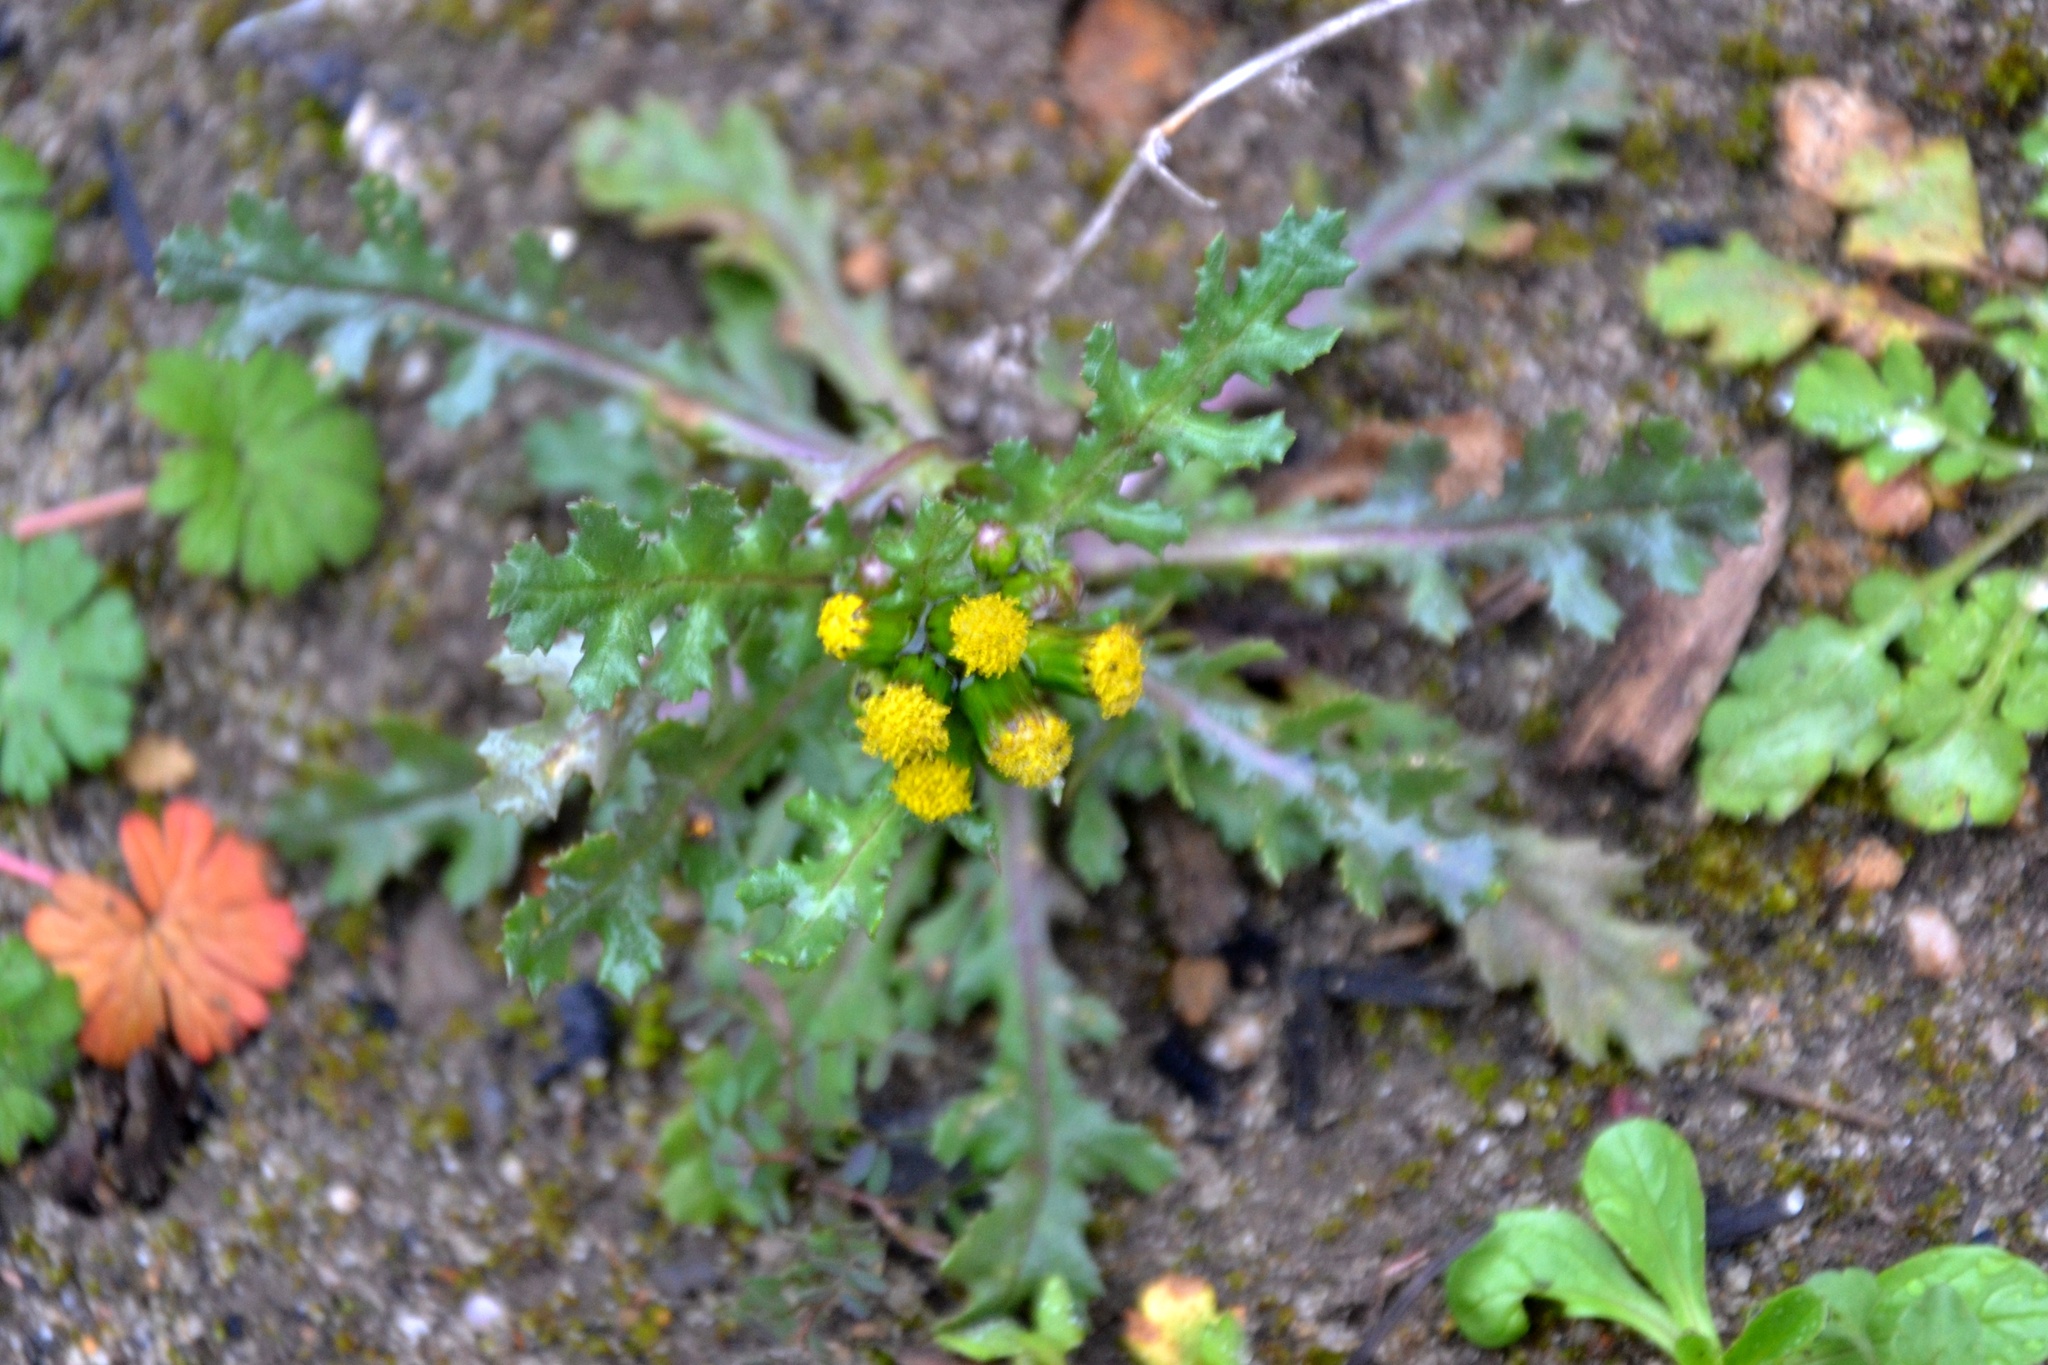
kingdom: Plantae
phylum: Tracheophyta
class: Magnoliopsida
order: Asterales
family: Asteraceae
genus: Senecio
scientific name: Senecio vulgaris
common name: Old-man-in-the-spring
